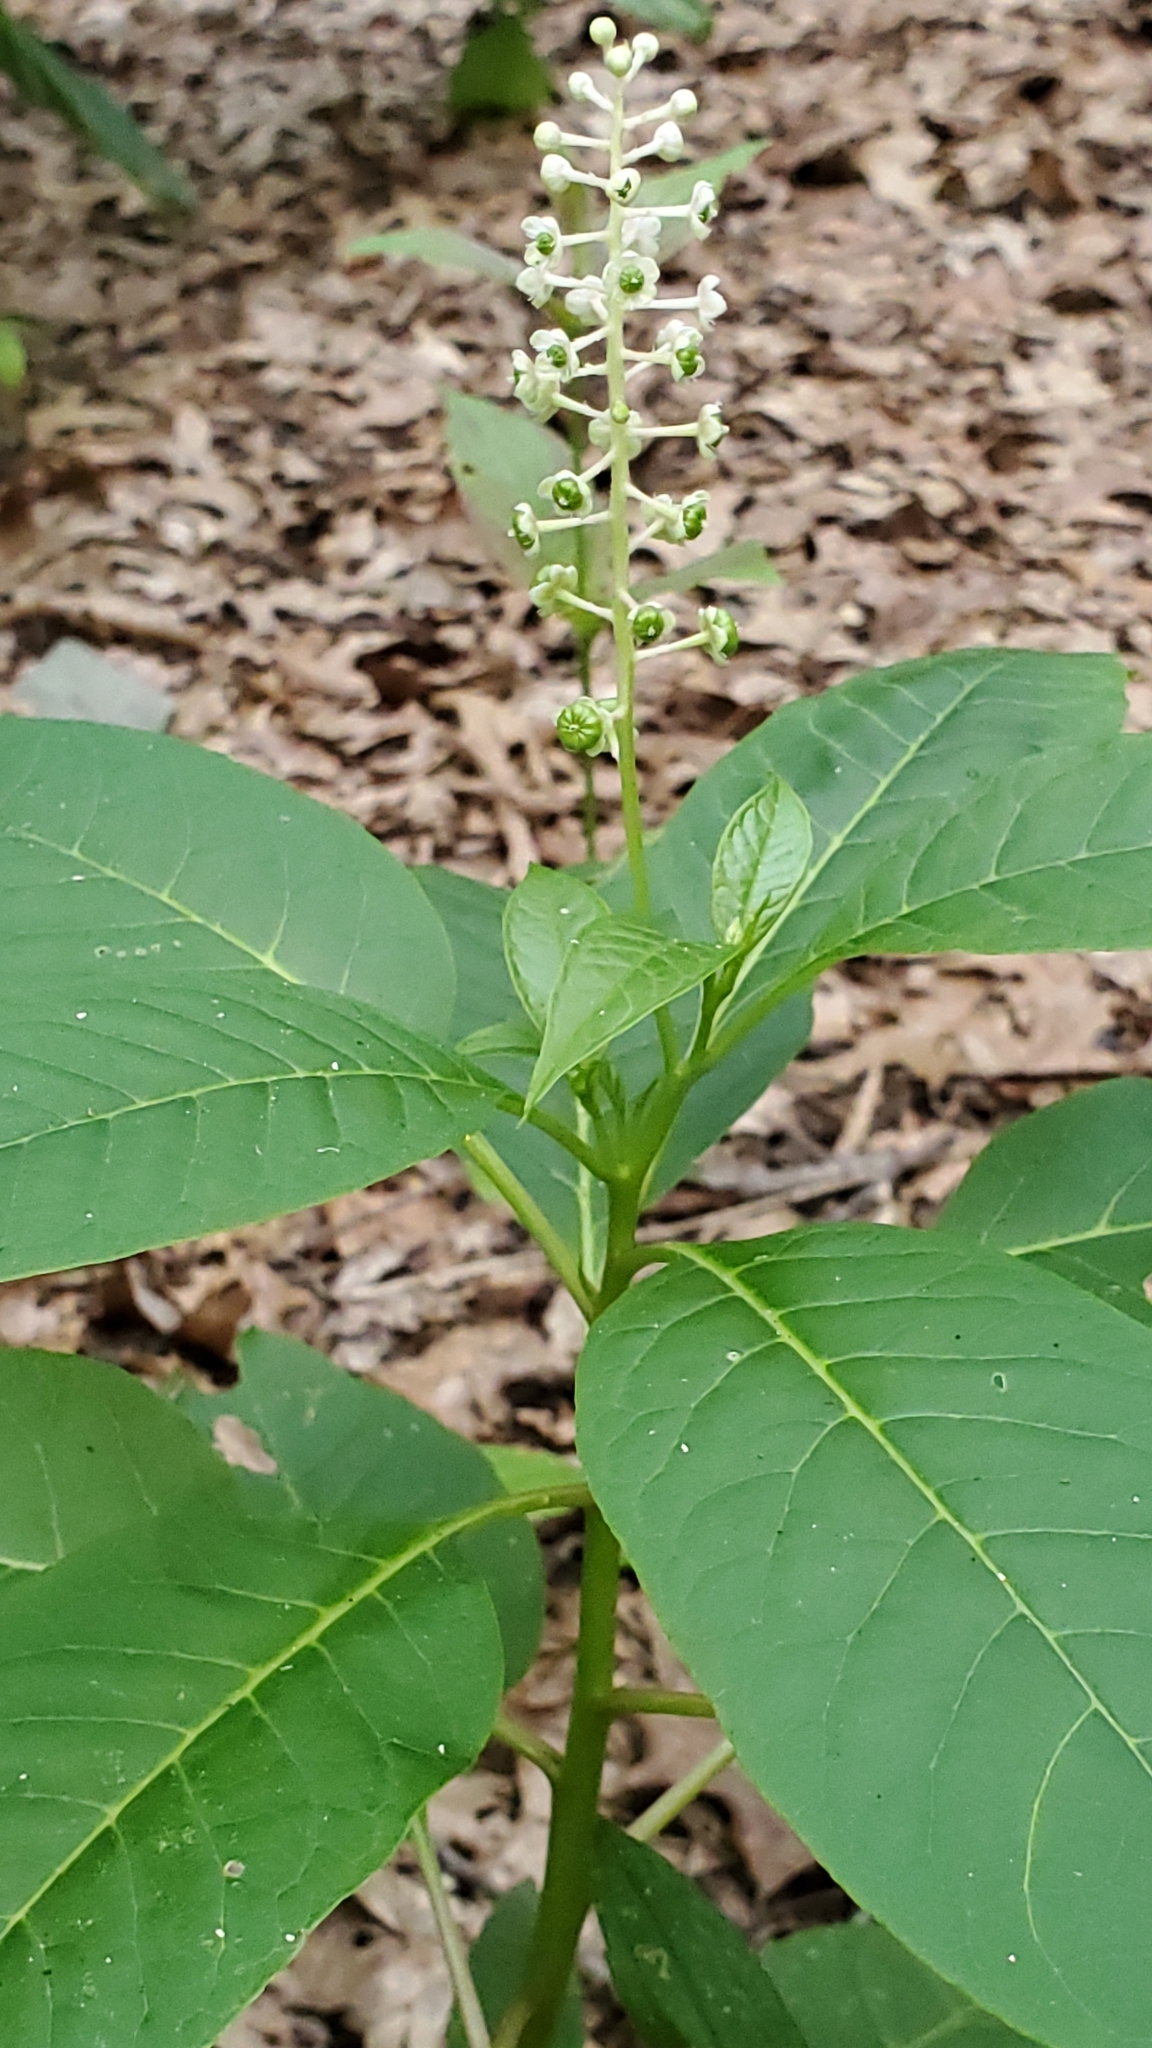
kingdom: Plantae
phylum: Tracheophyta
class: Magnoliopsida
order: Caryophyllales
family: Phytolaccaceae
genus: Phytolacca
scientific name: Phytolacca americana
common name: American pokeweed
